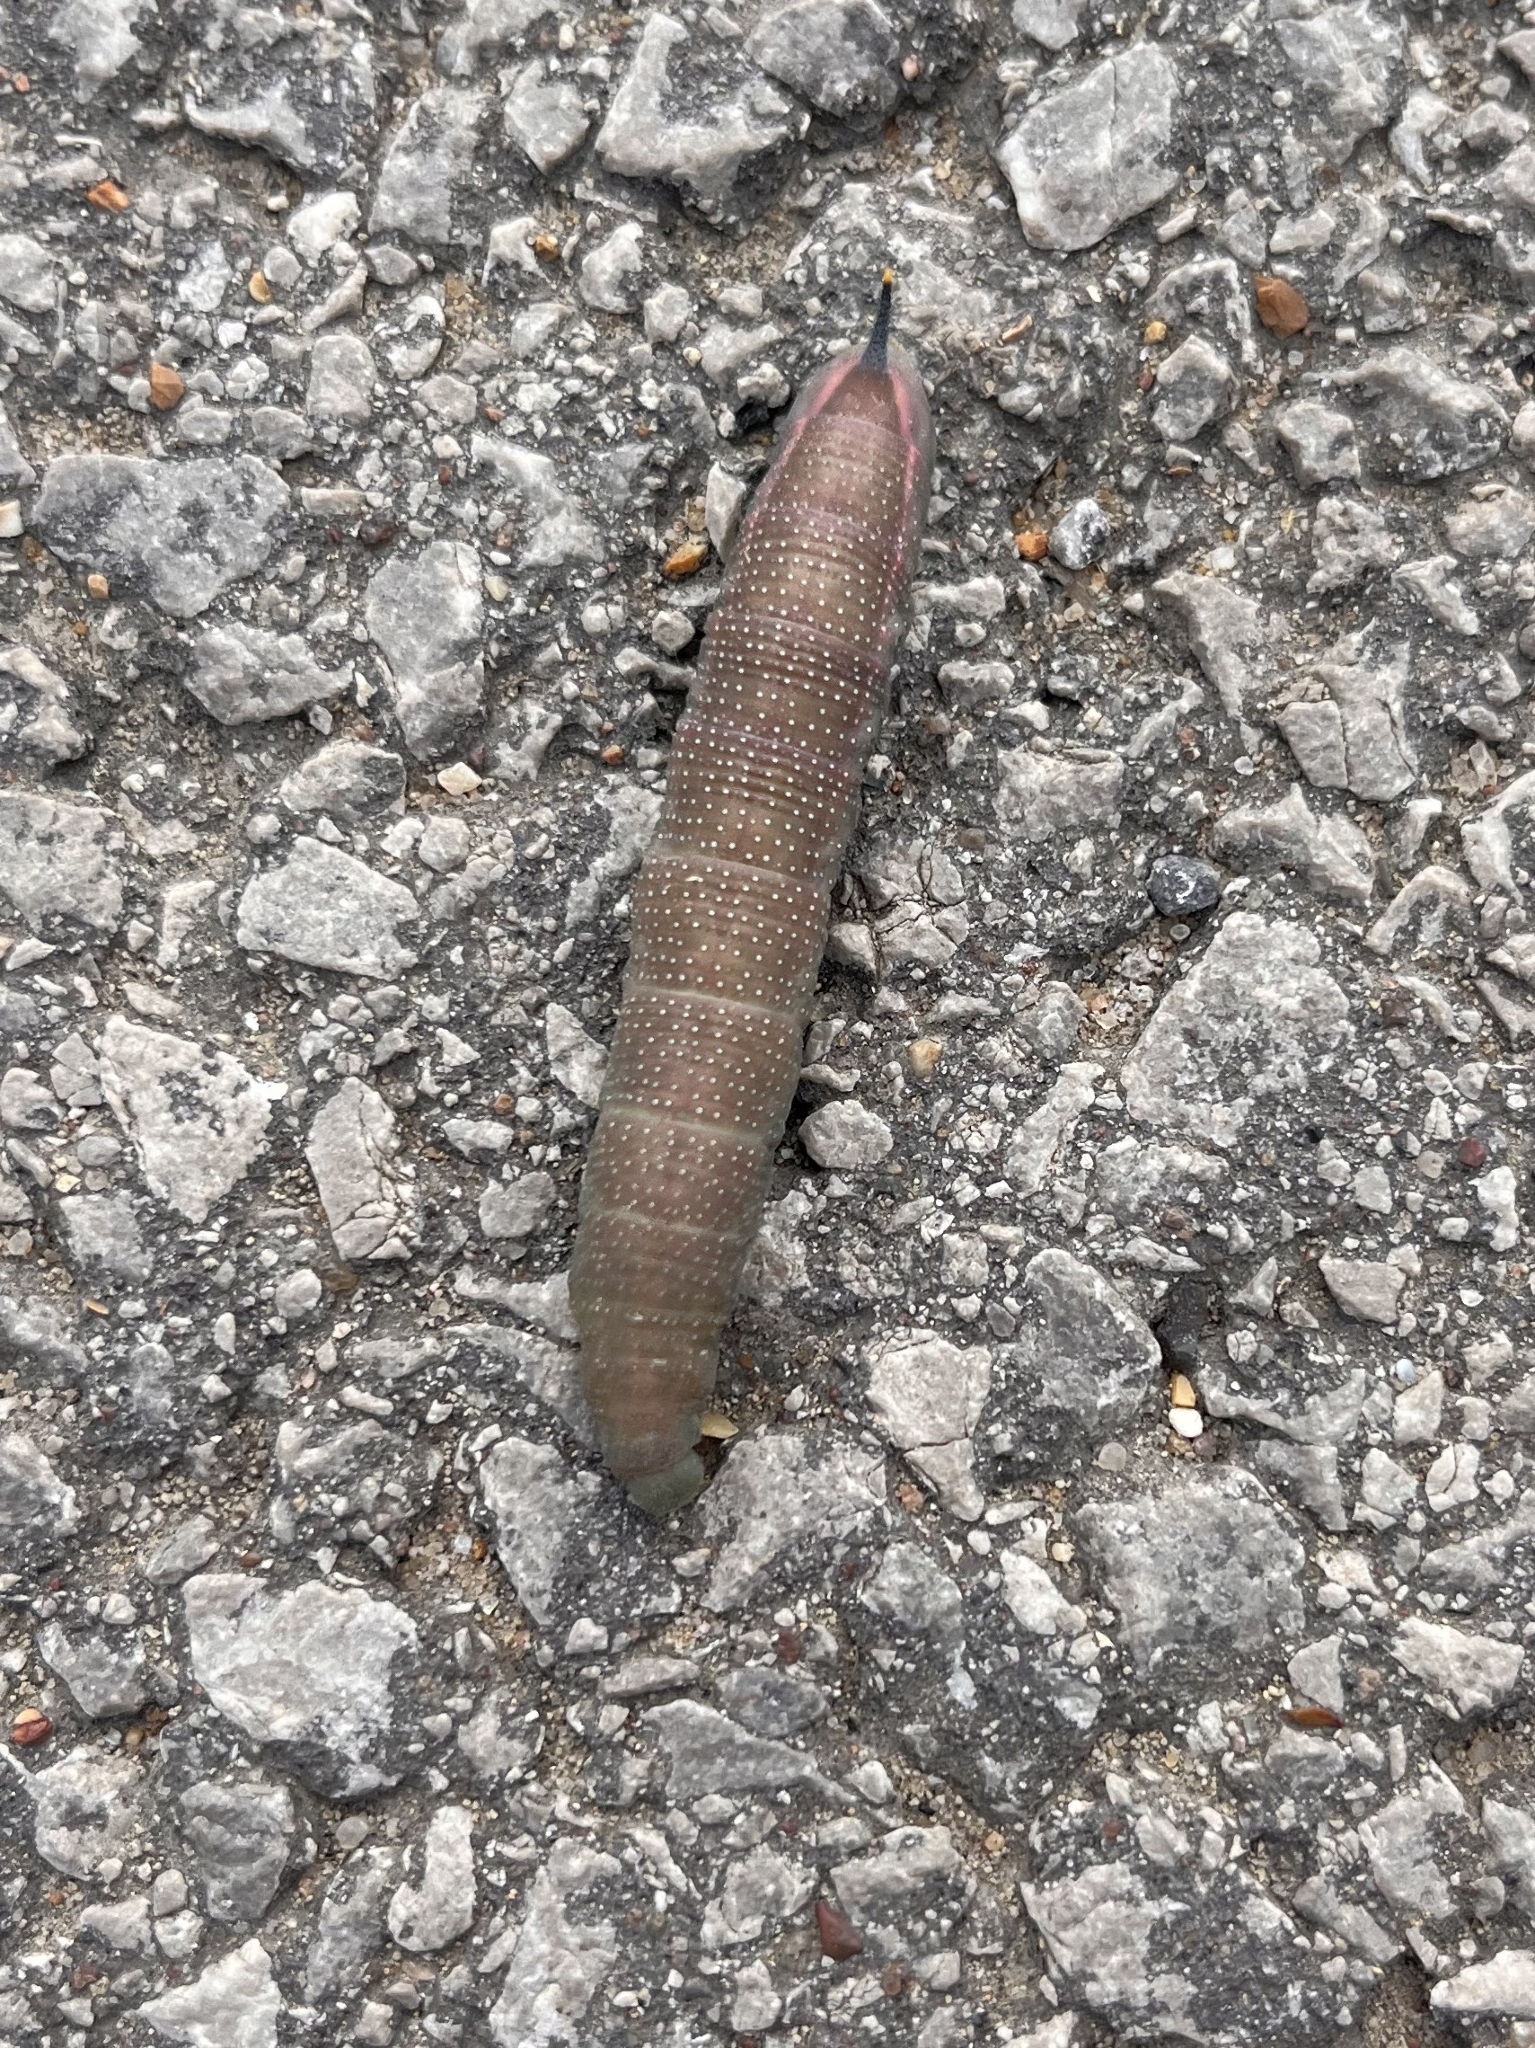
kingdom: Animalia
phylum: Arthropoda
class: Insecta
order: Lepidoptera
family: Sphingidae
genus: Macroglossum
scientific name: Macroglossum stellatarum
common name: Humming-bird hawk-moth
